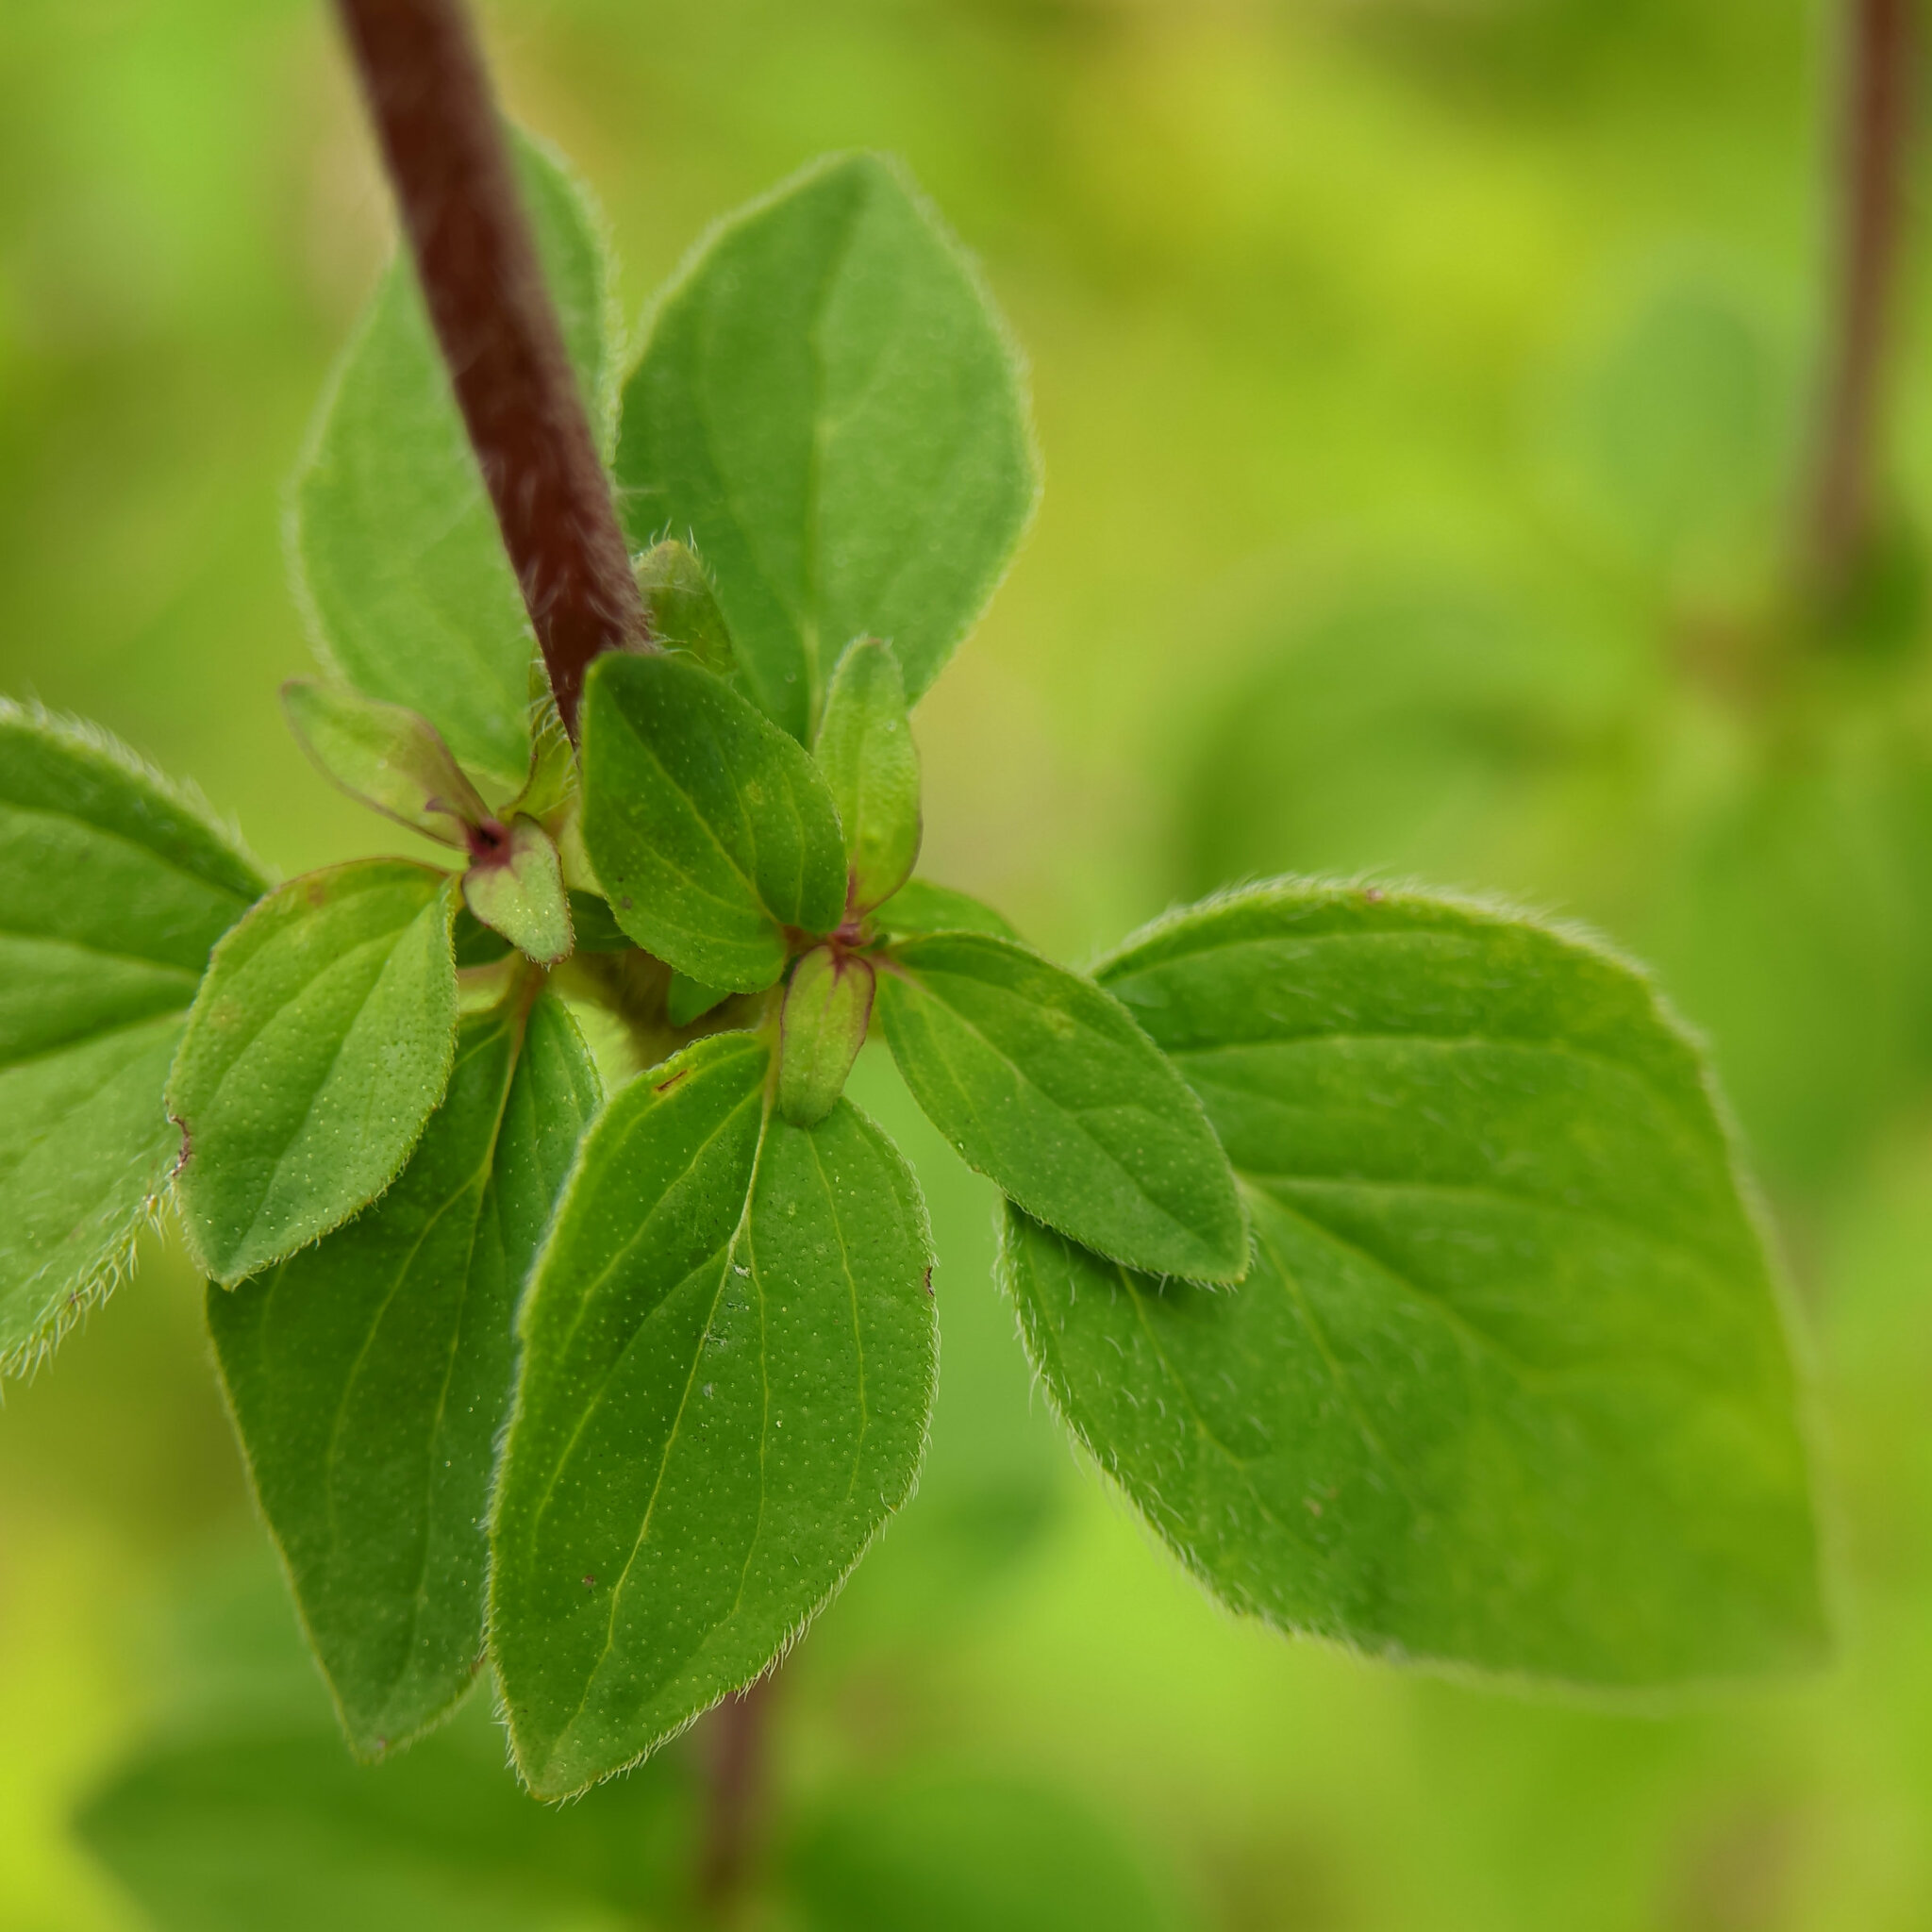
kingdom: Plantae
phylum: Tracheophyta
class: Magnoliopsida
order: Lamiales
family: Lamiaceae
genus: Origanum
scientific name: Origanum vulgare
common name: Wild marjoram
